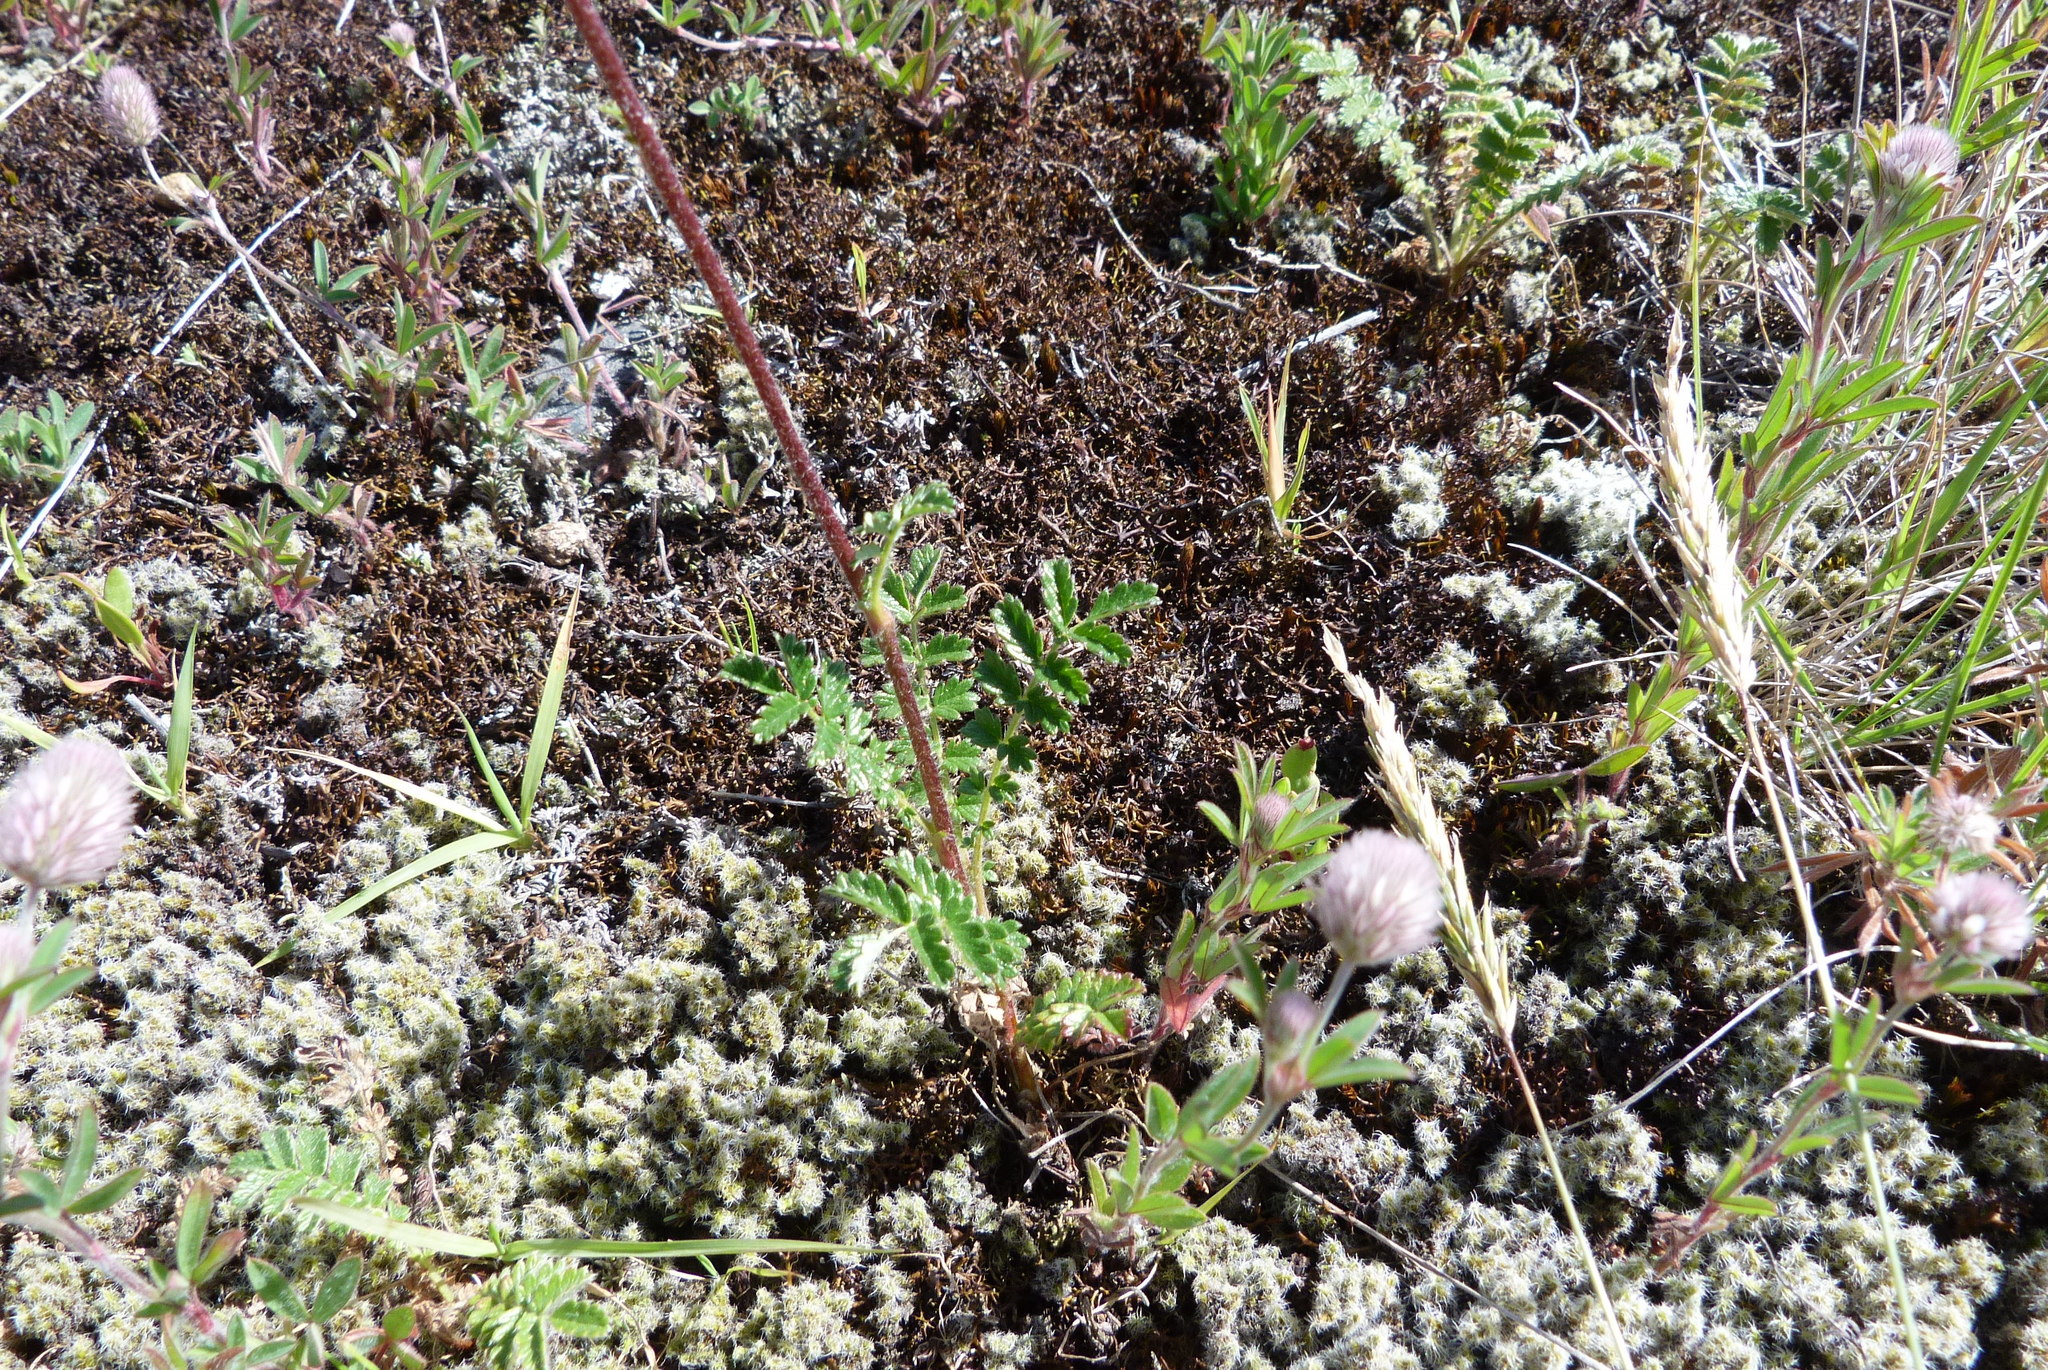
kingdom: Plantae
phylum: Tracheophyta
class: Magnoliopsida
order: Rosales
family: Rosaceae
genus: Acaena
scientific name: Acaena agnipila
